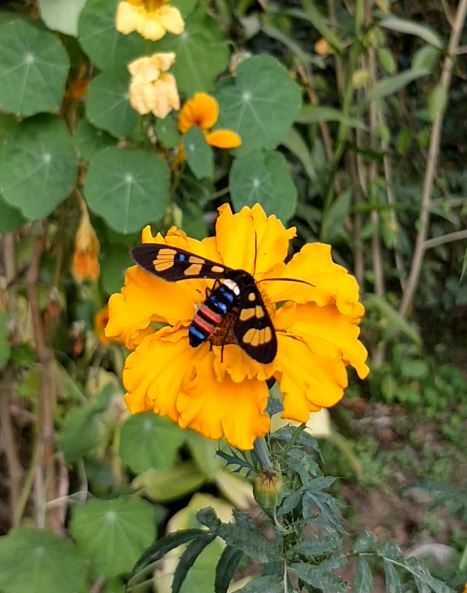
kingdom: Animalia
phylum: Arthropoda
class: Insecta
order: Lepidoptera
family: Erebidae
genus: Euchromia
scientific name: Euchromia polymena
